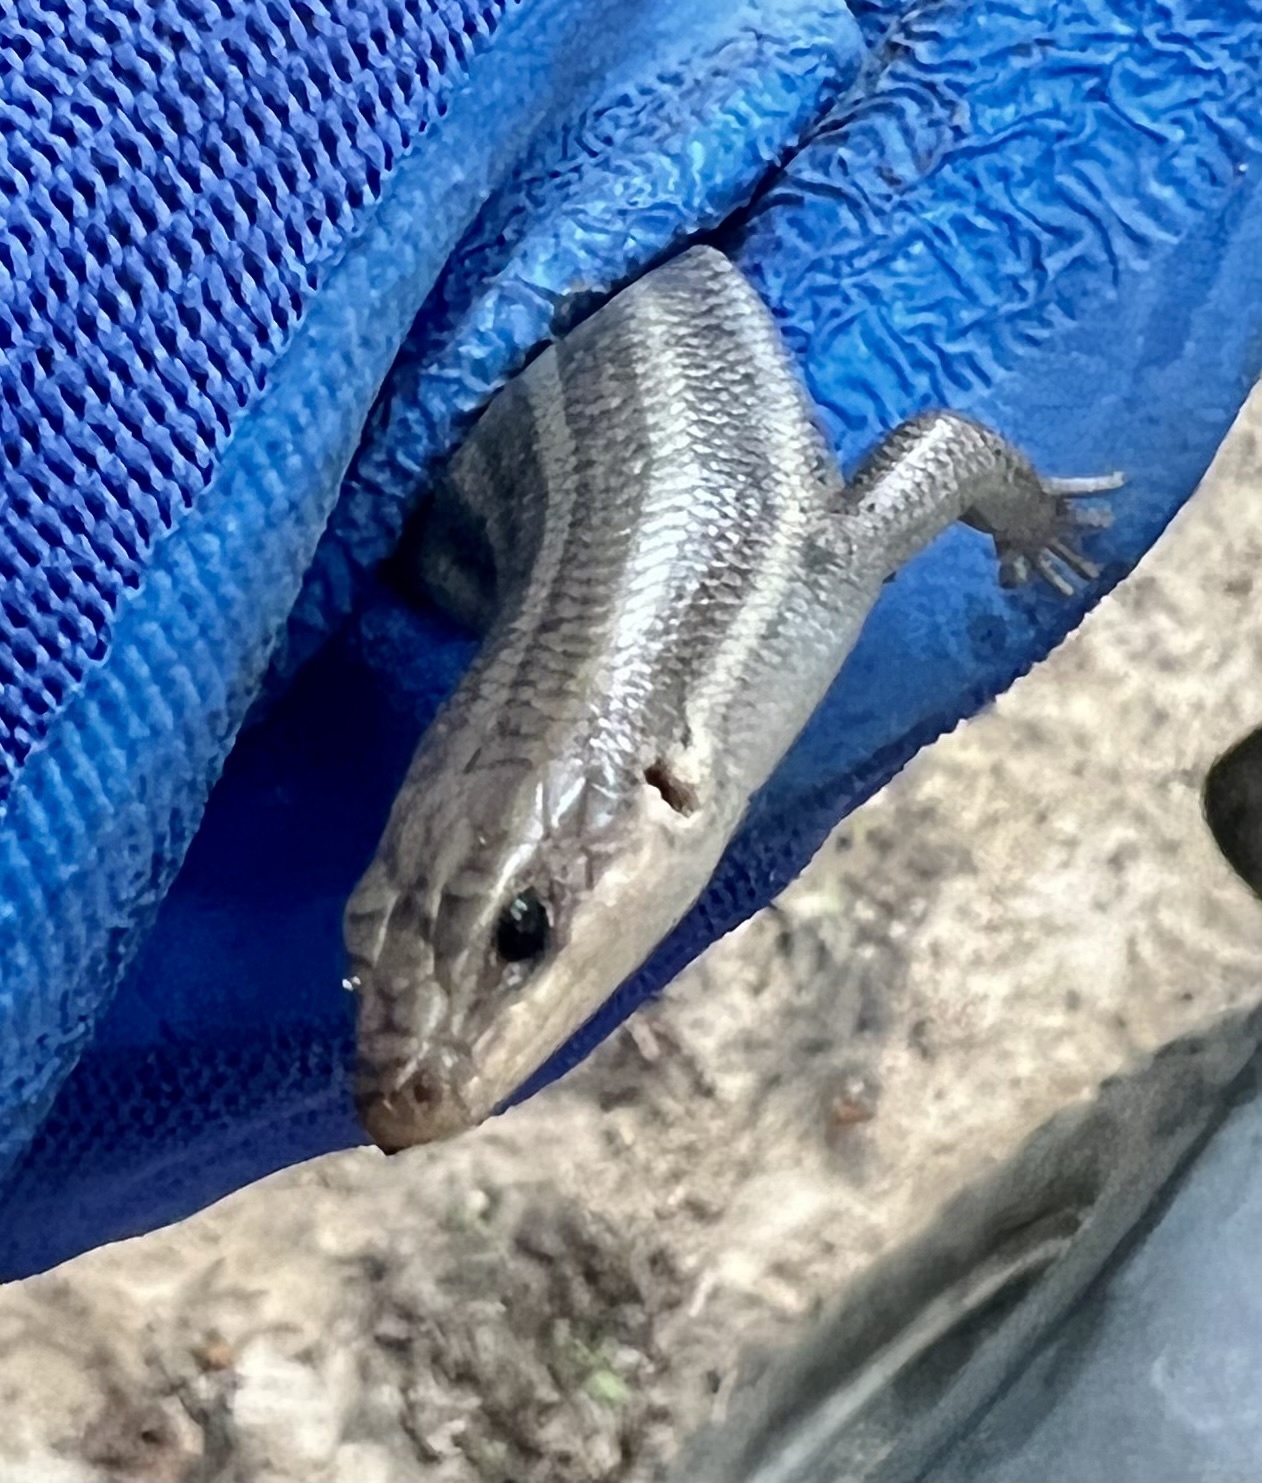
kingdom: Animalia
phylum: Chordata
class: Squamata
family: Scincidae
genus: Plestiodon
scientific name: Plestiodon fasciatus
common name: Five-lined skink
